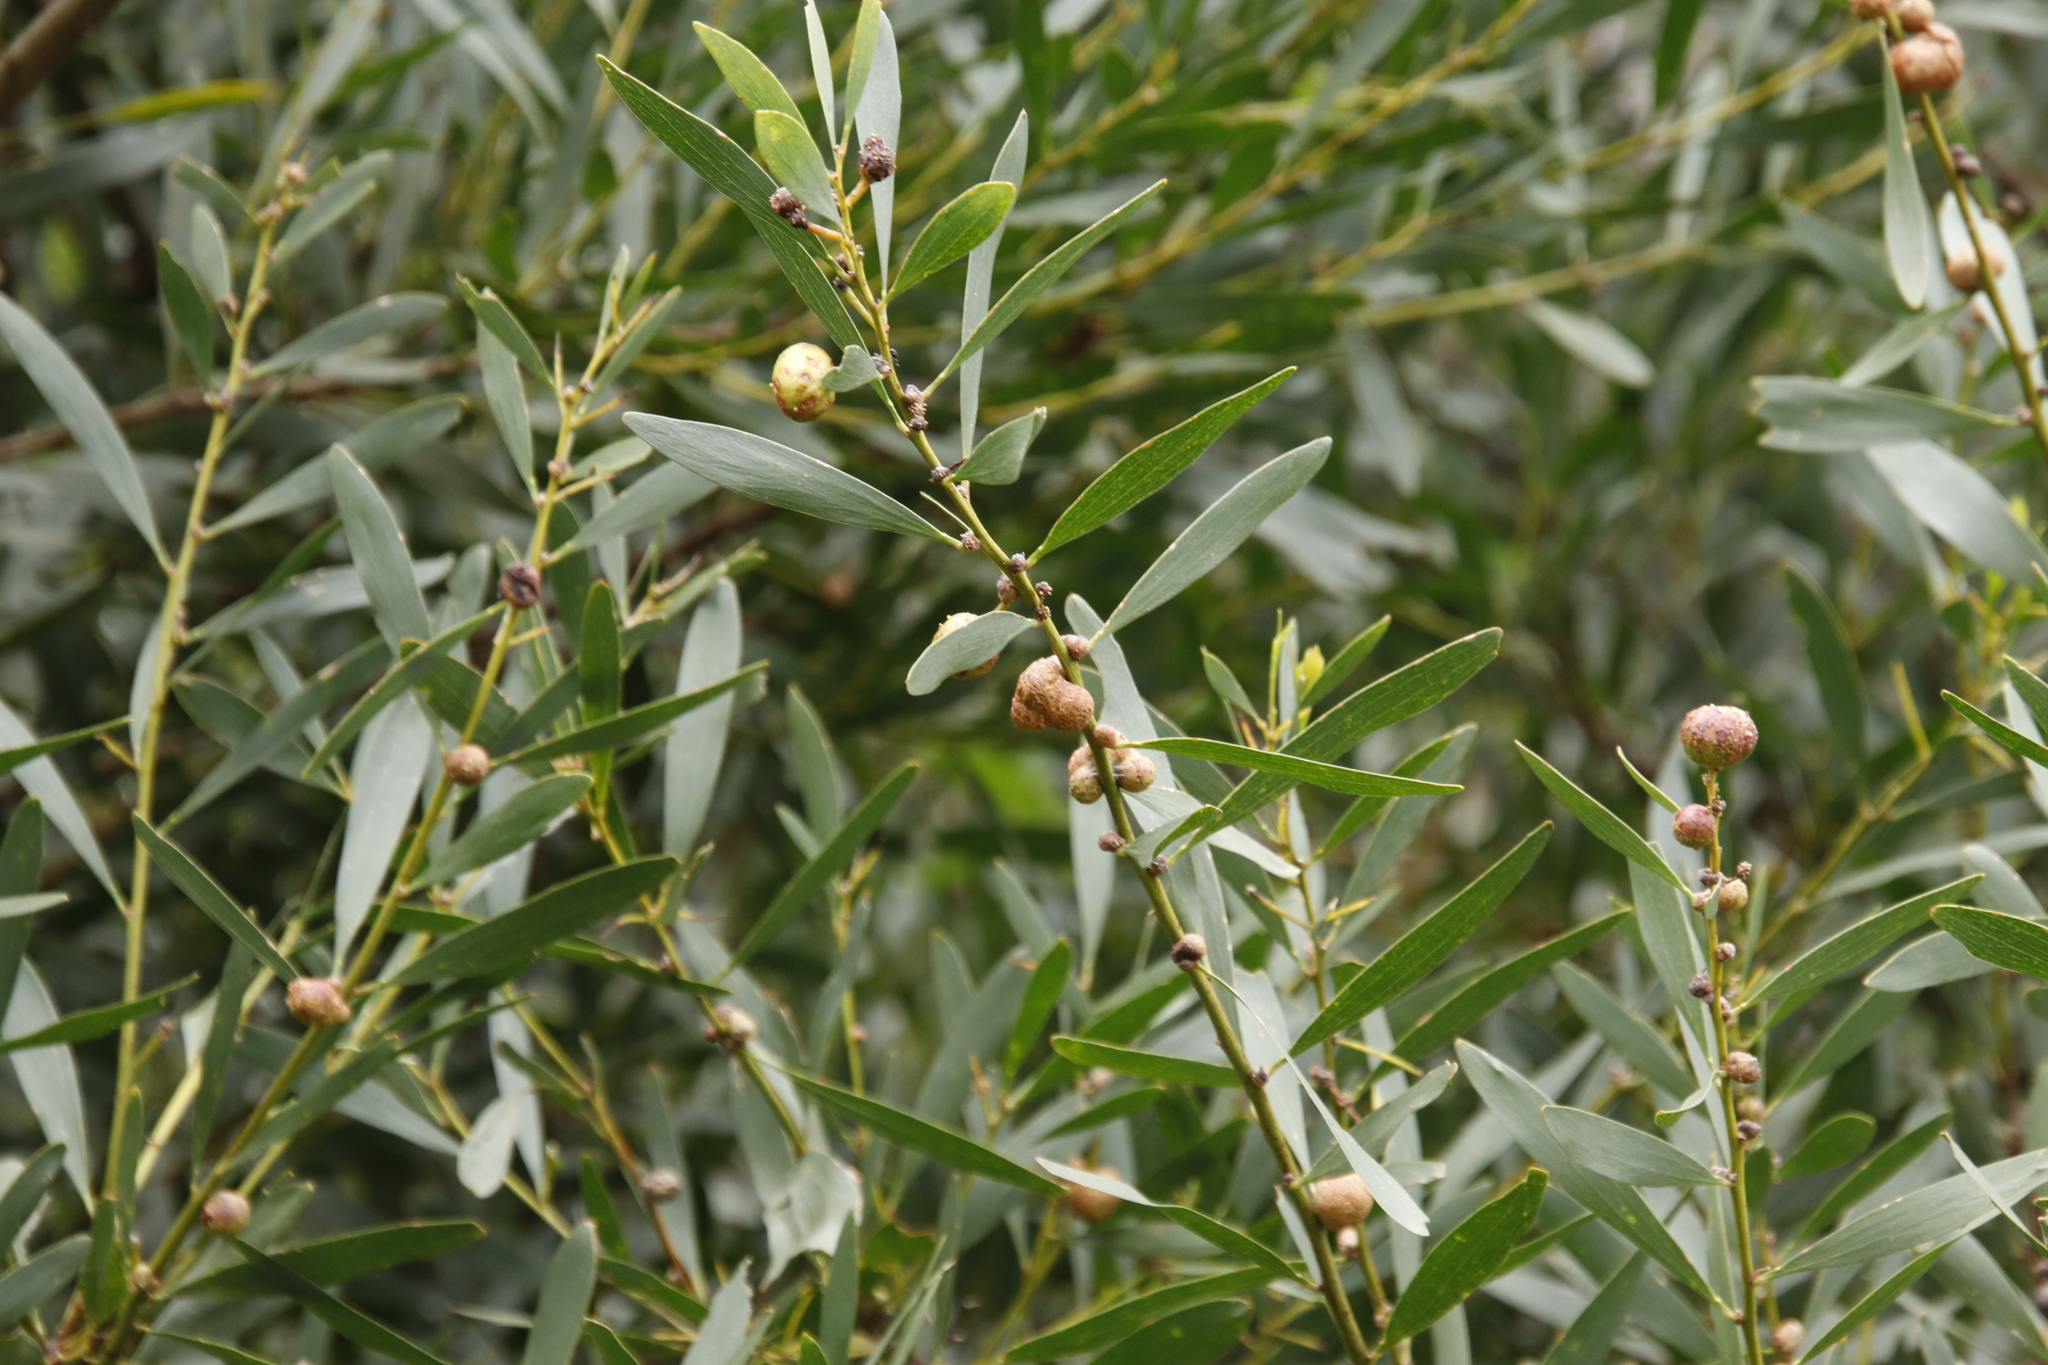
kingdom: Plantae
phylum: Tracheophyta
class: Magnoliopsida
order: Fabales
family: Fabaceae
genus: Acacia
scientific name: Acacia longifolia
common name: Sydney golden wattle
